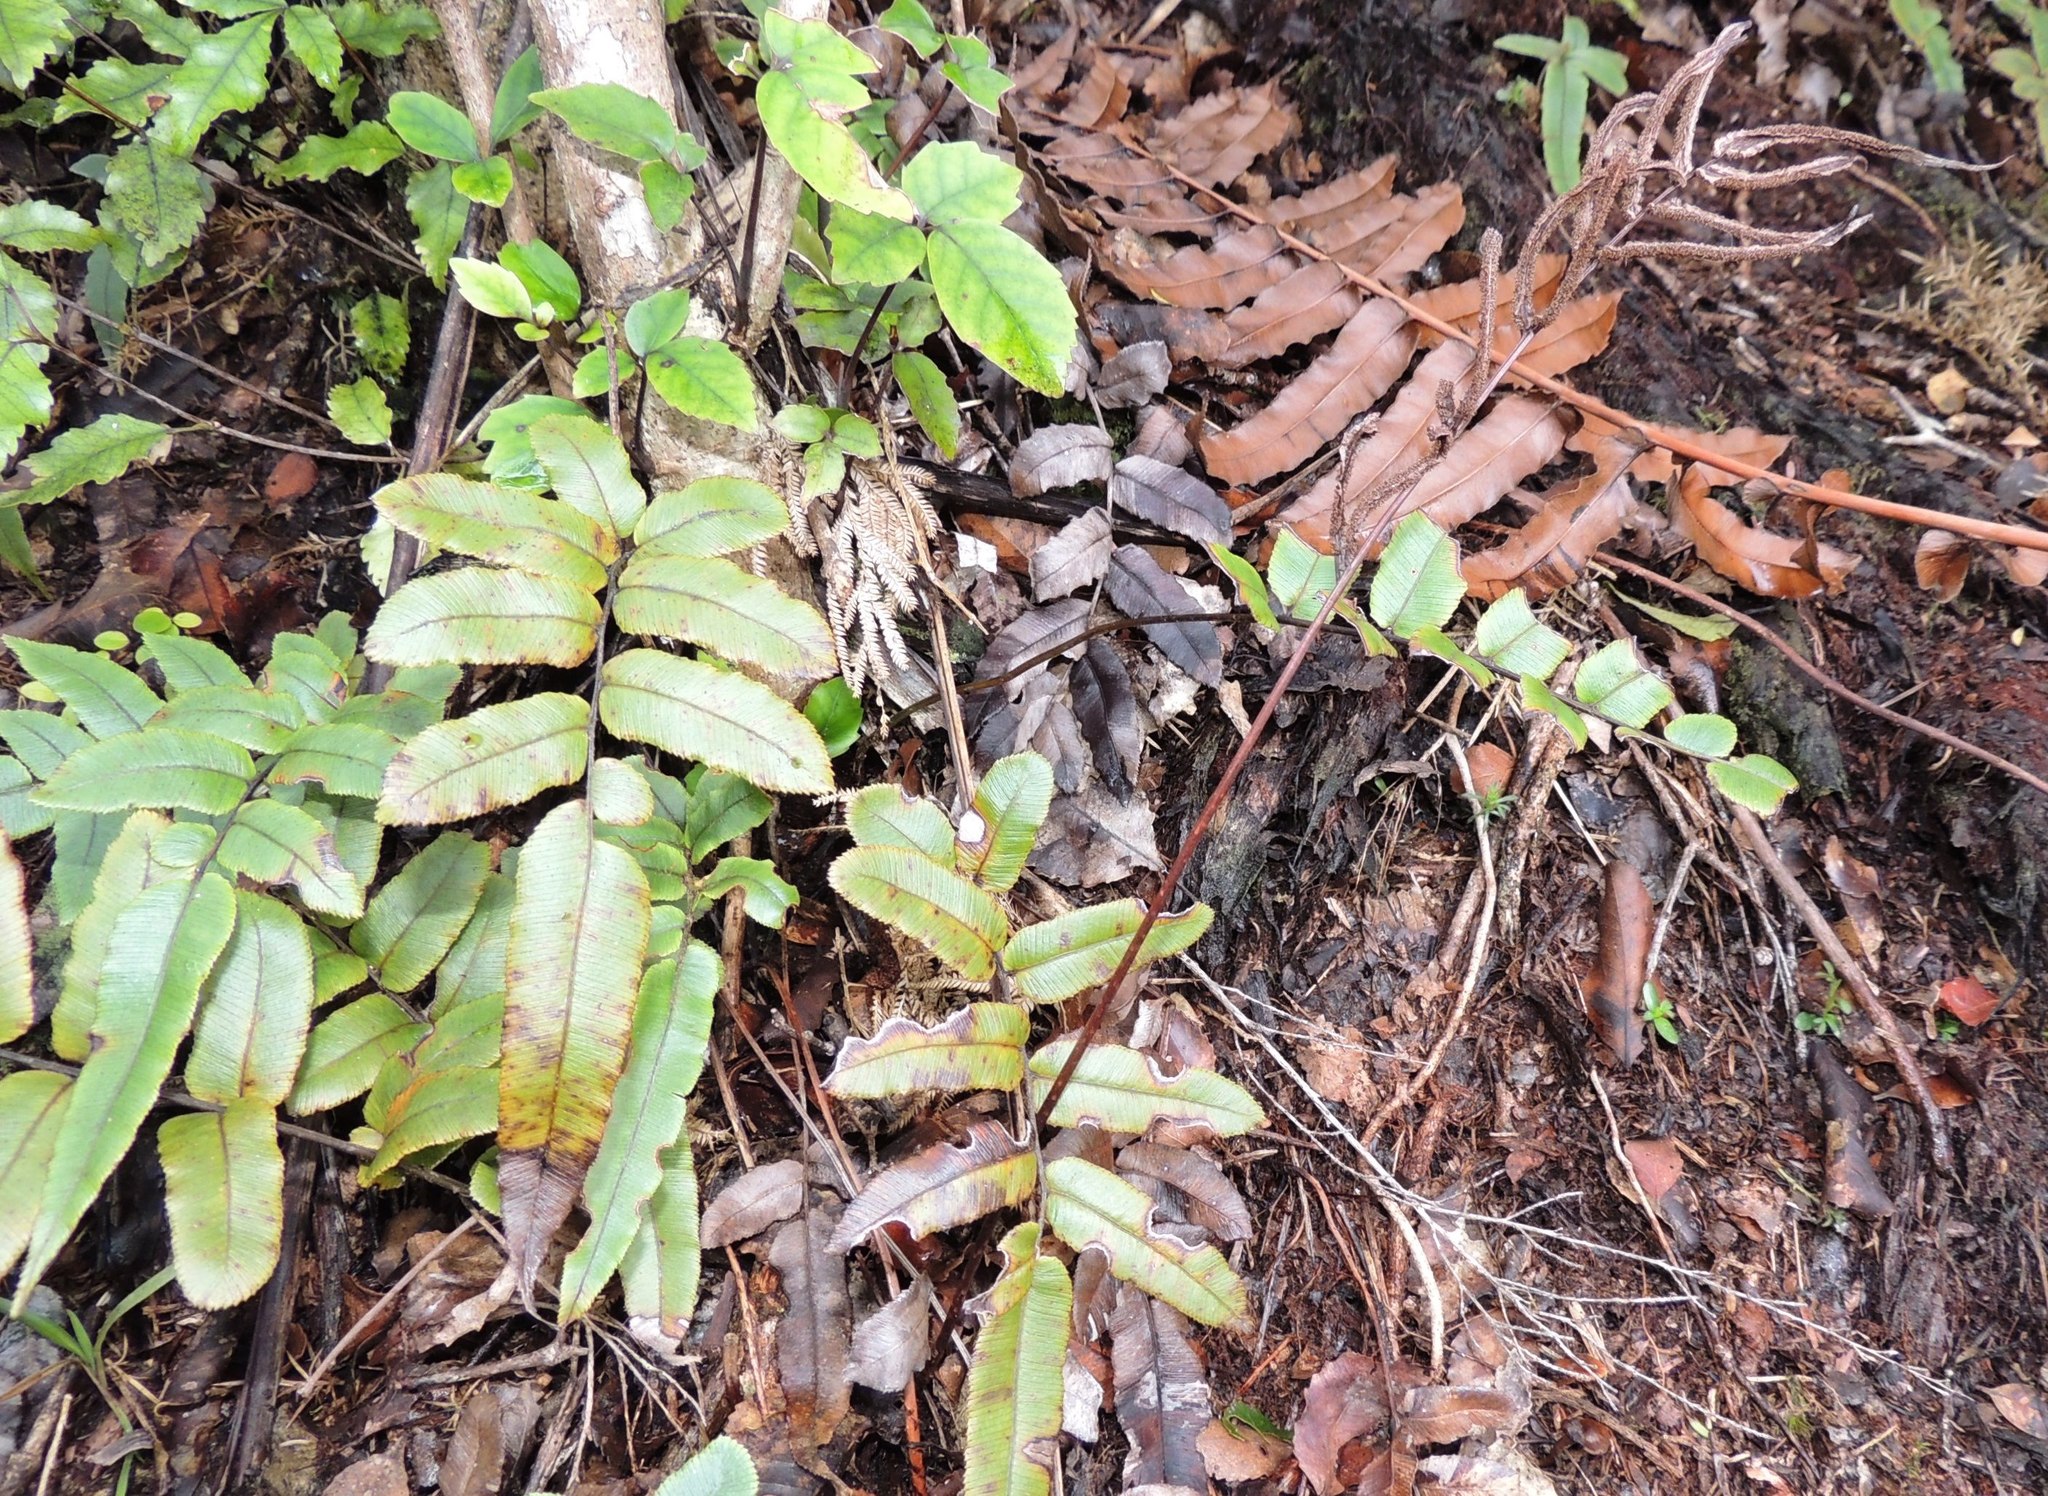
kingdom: Plantae
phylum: Tracheophyta
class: Polypodiopsida
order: Polypodiales
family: Blechnaceae
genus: Parablechnum
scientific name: Parablechnum procerum
